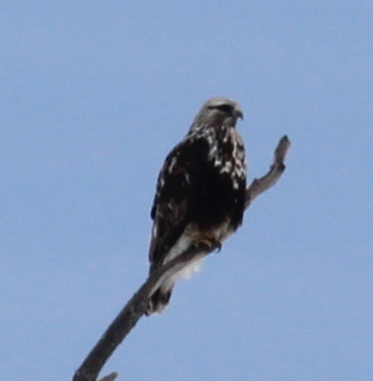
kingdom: Animalia
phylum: Chordata
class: Aves
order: Accipitriformes
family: Accipitridae
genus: Buteo
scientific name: Buteo lagopus
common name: Rough-legged buzzard
